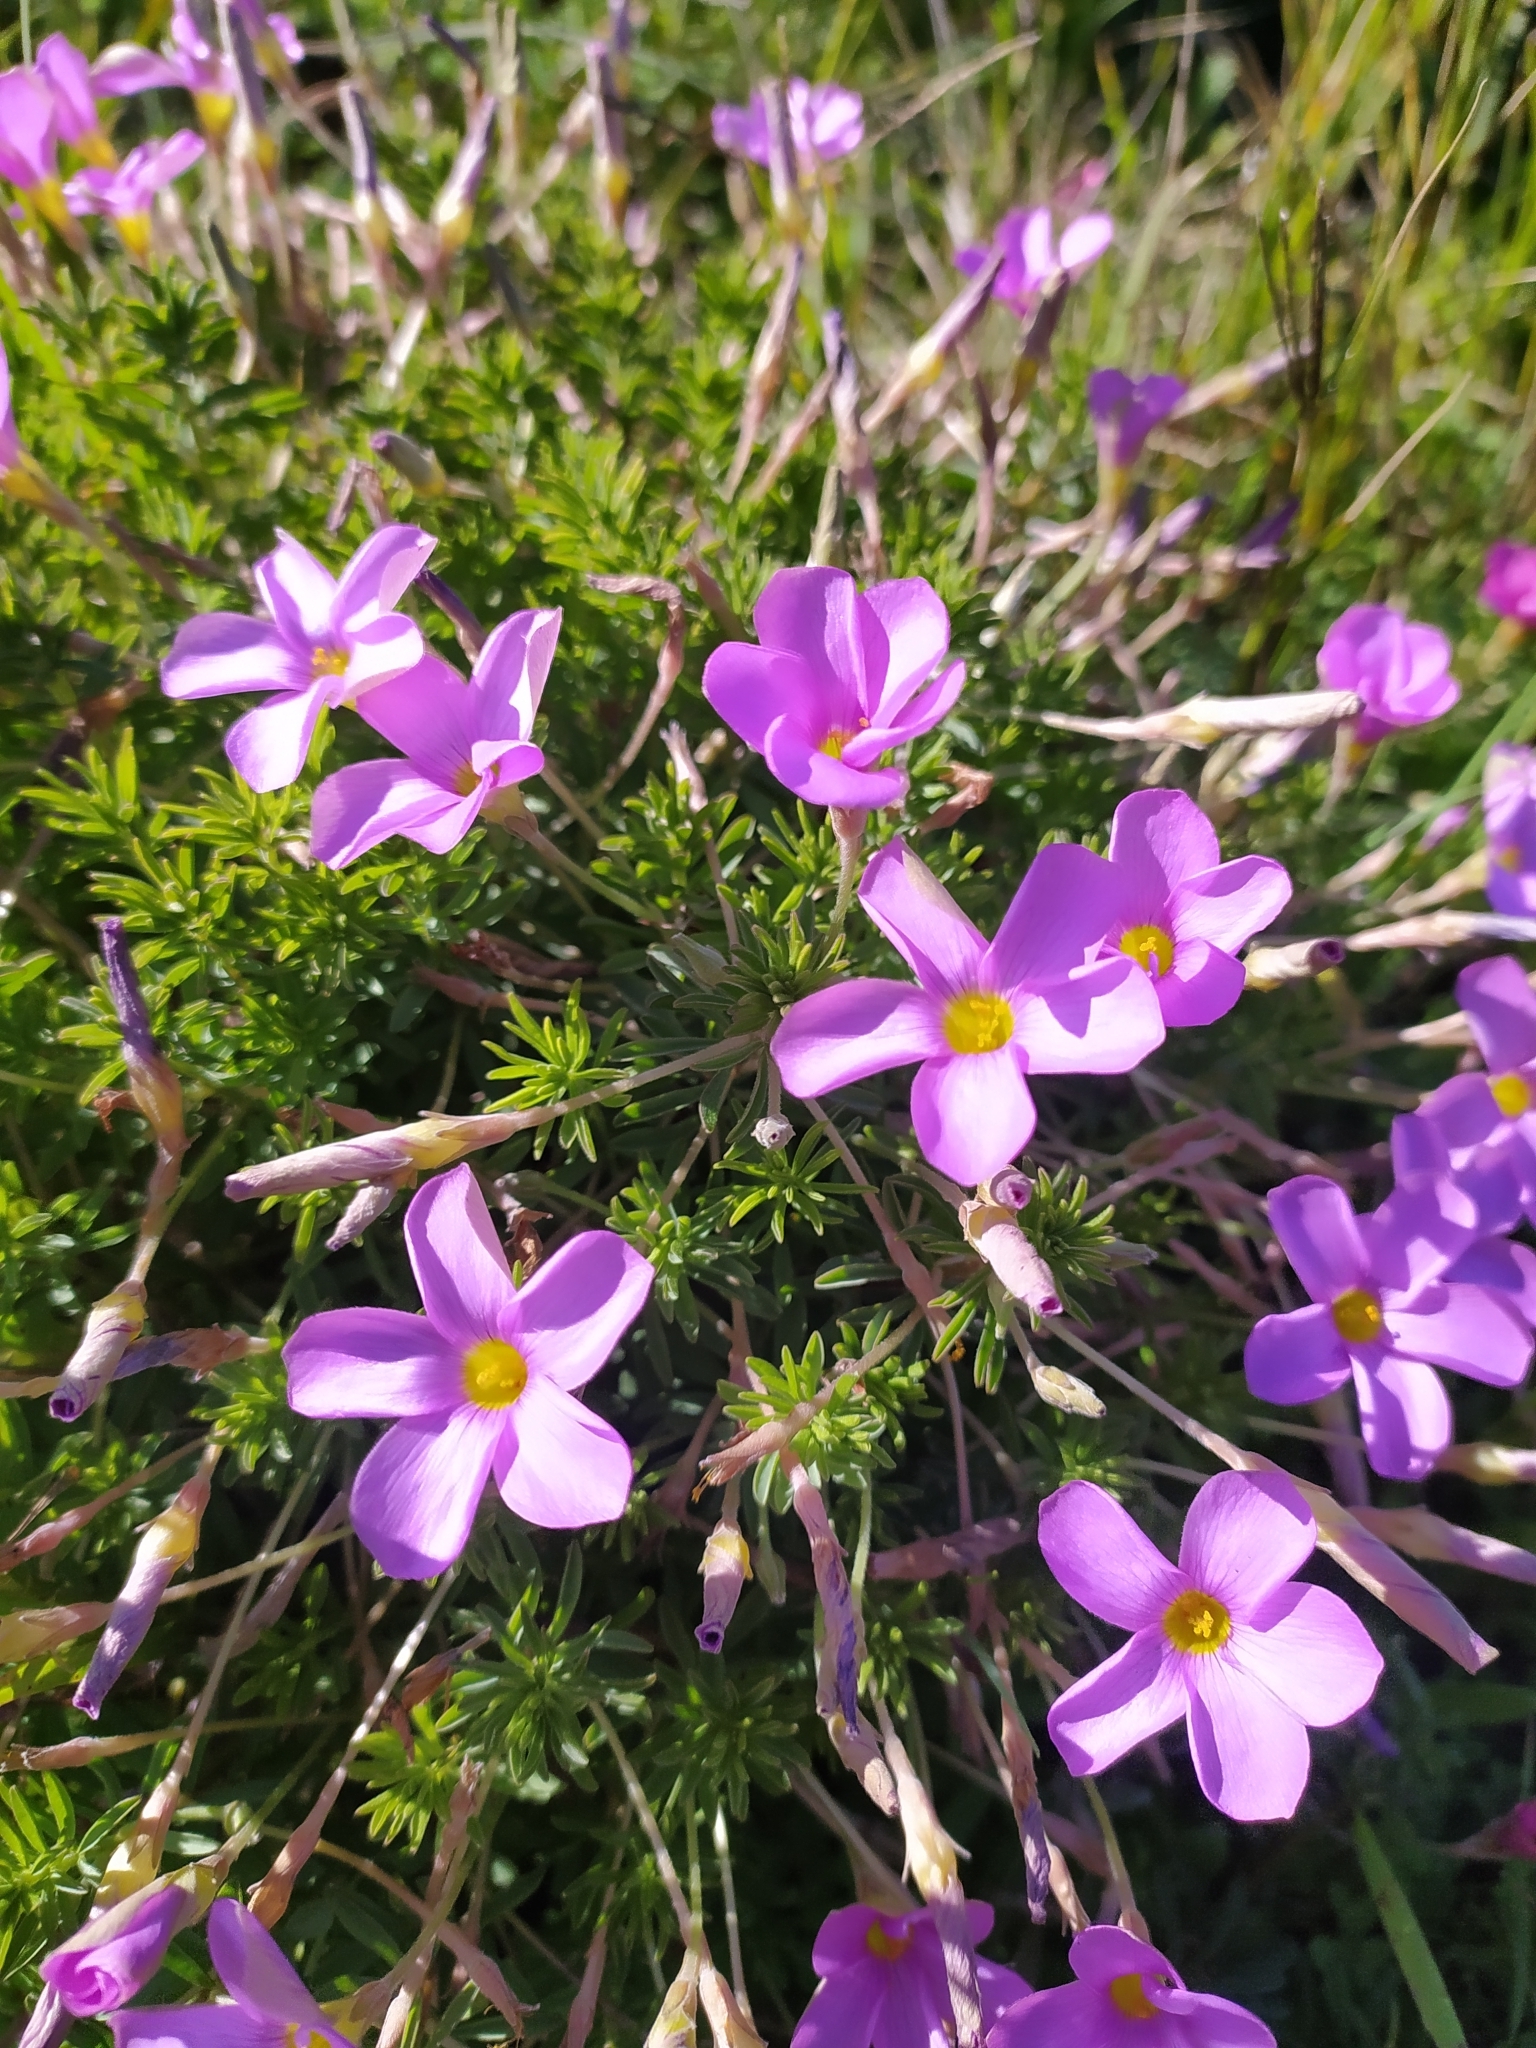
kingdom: Plantae
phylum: Tracheophyta
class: Magnoliopsida
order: Oxalidales
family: Oxalidaceae
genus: Oxalis
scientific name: Oxalis hirta
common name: Tropical woodsorrel
